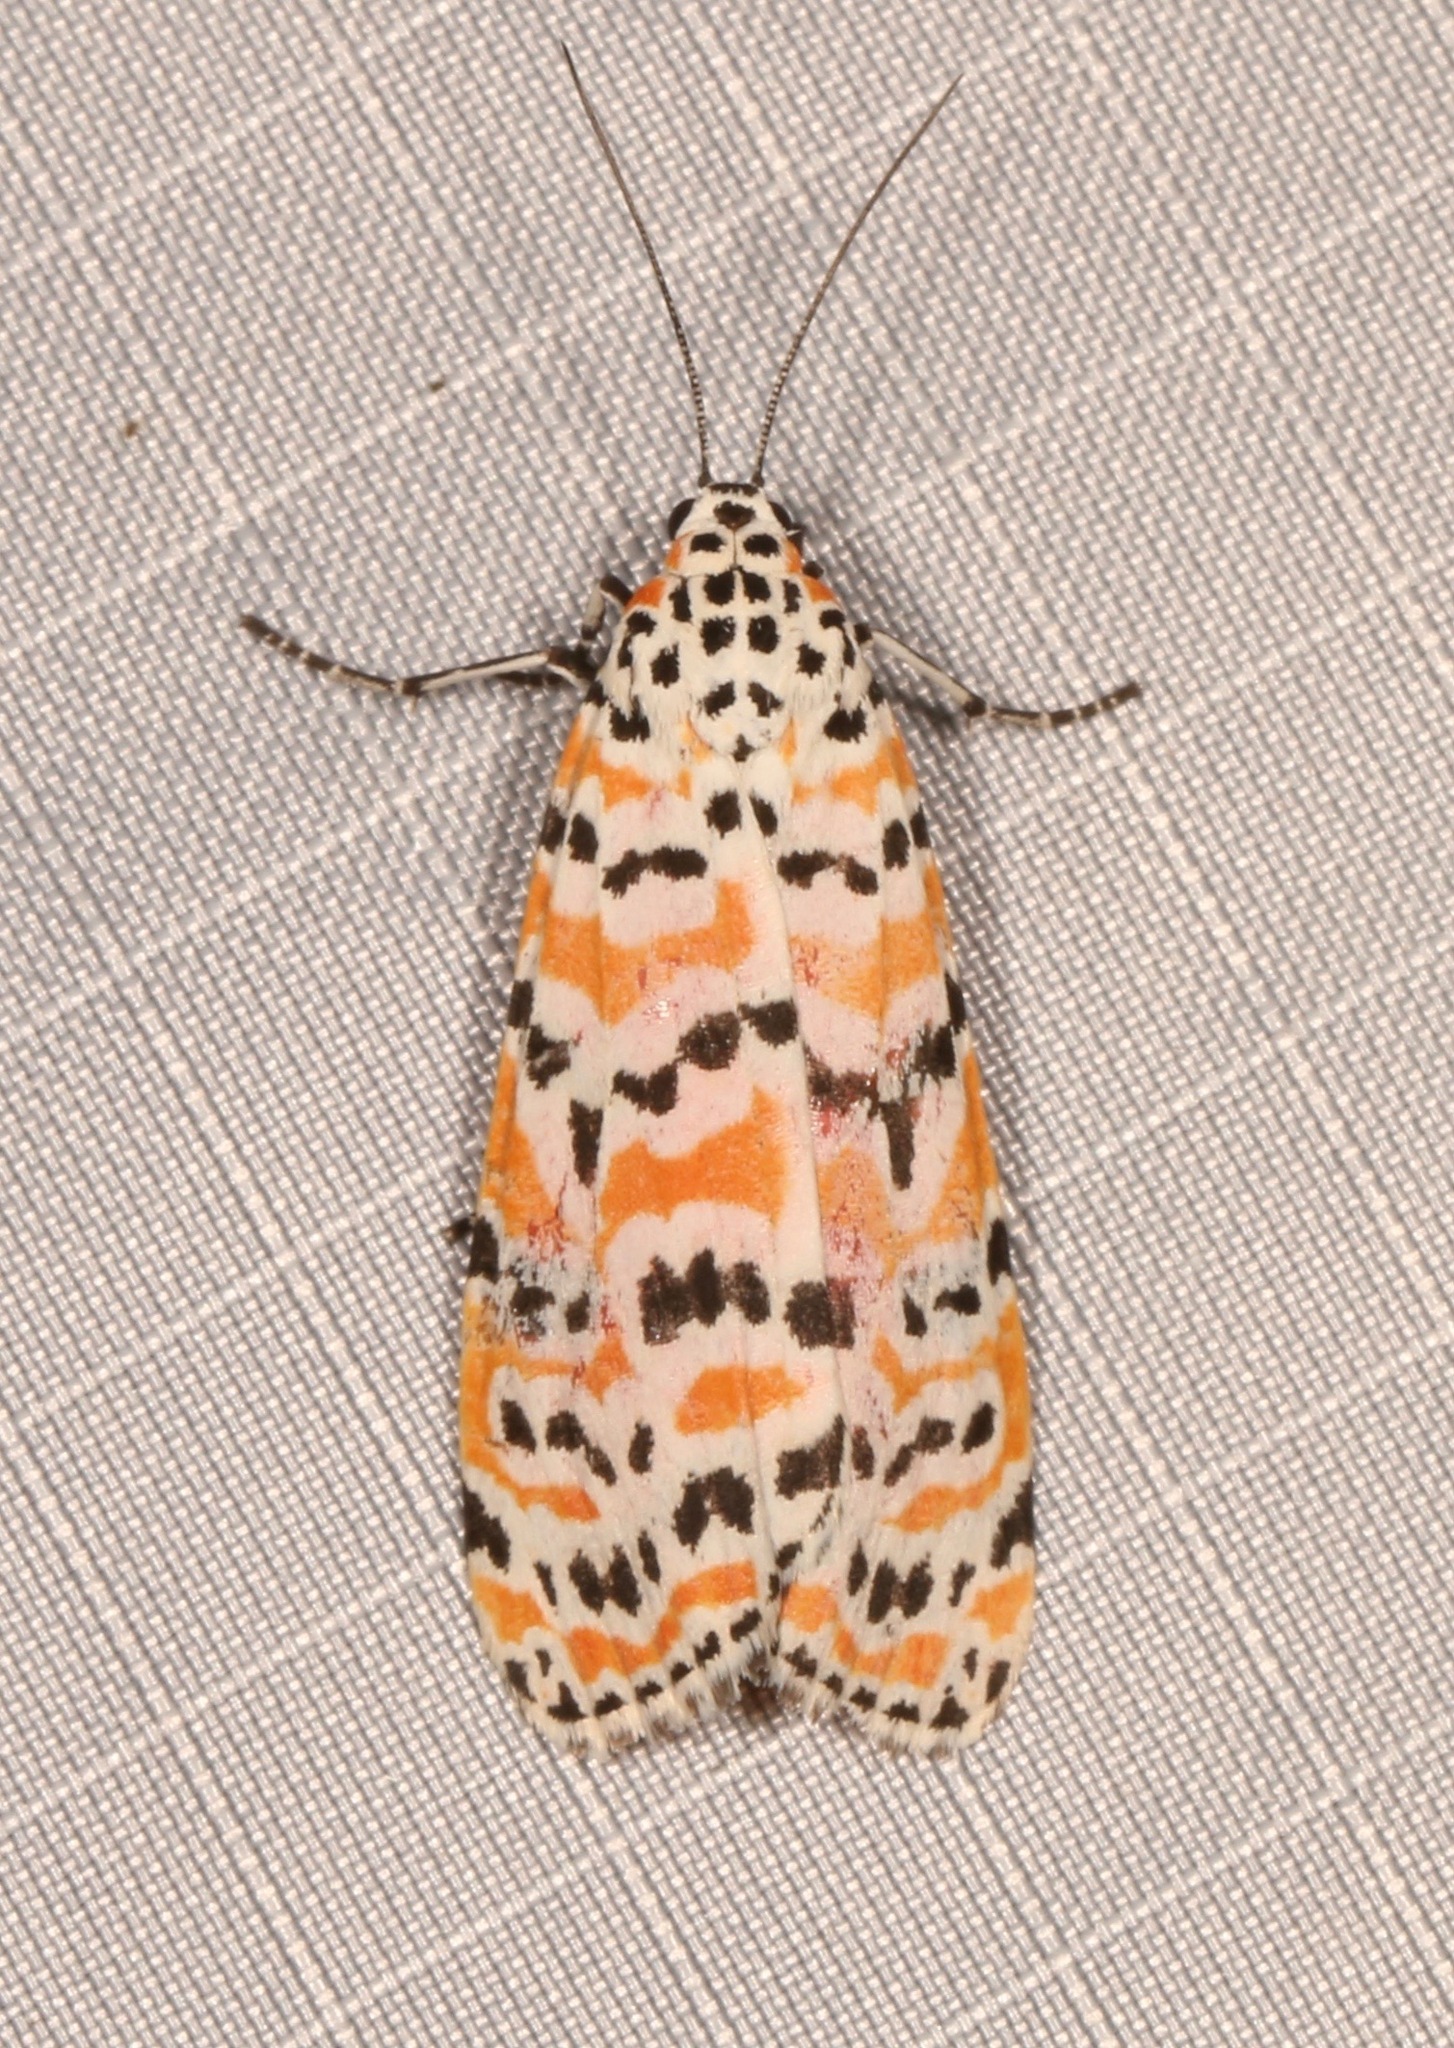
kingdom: Animalia
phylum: Arthropoda
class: Insecta
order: Lepidoptera
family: Erebidae
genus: Utetheisa
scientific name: Utetheisa ornatrix
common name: Beautiful utetheisa
